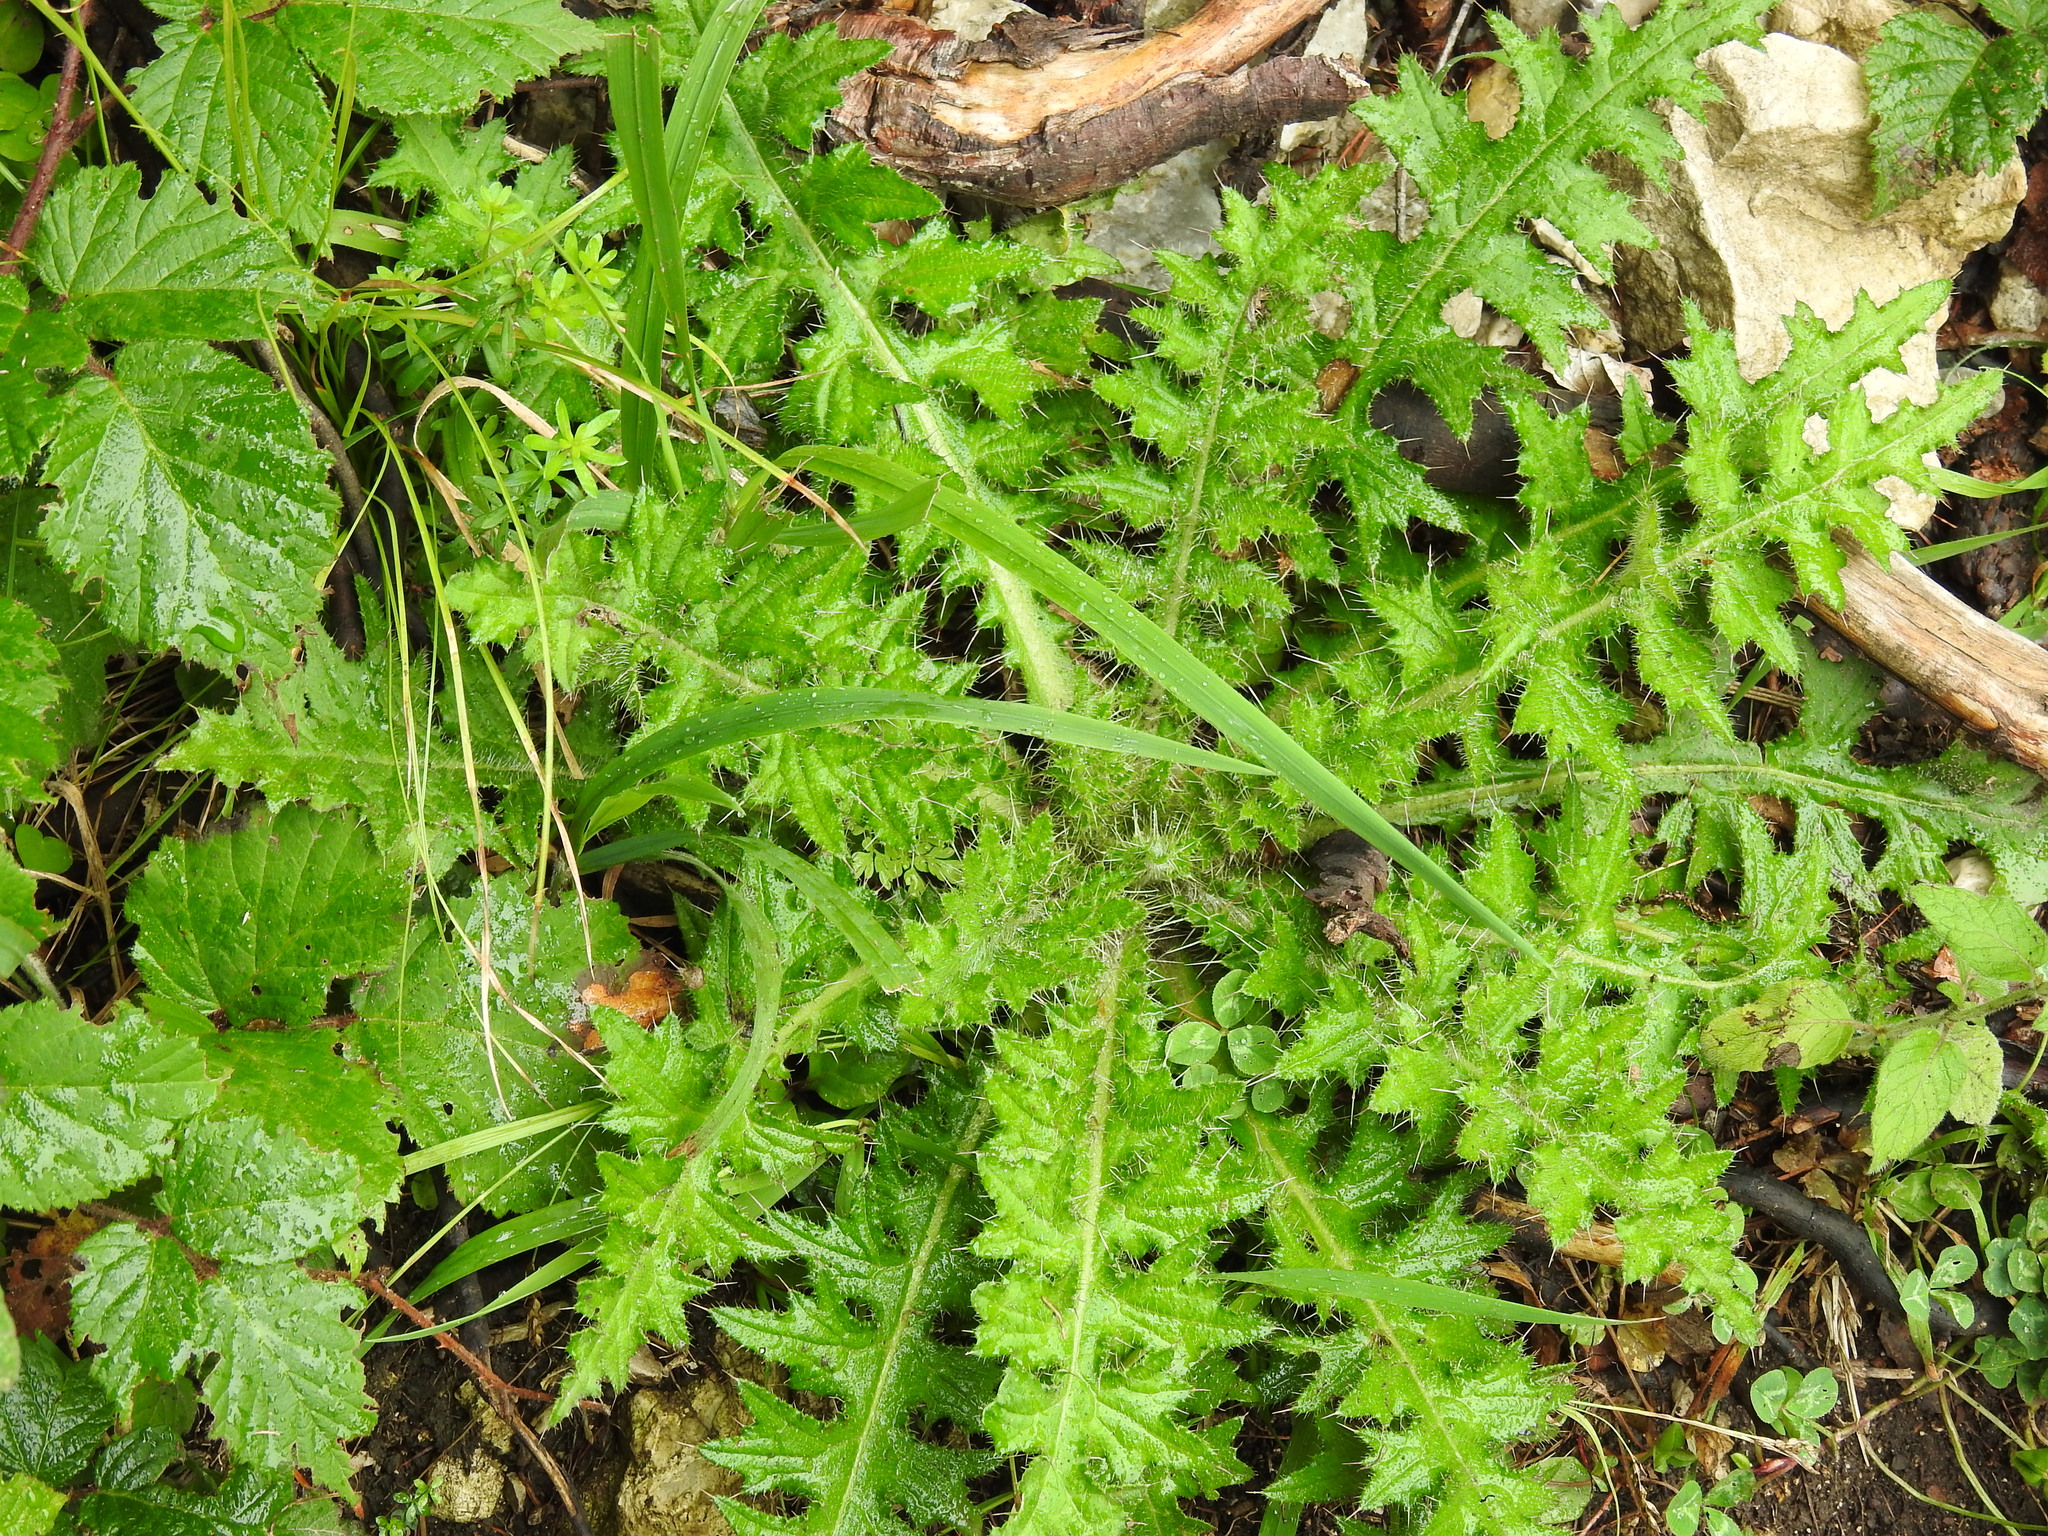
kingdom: Plantae
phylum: Tracheophyta
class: Magnoliopsida
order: Asterales
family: Asteraceae
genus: Cirsium
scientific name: Cirsium palustre
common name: Marsh thistle
